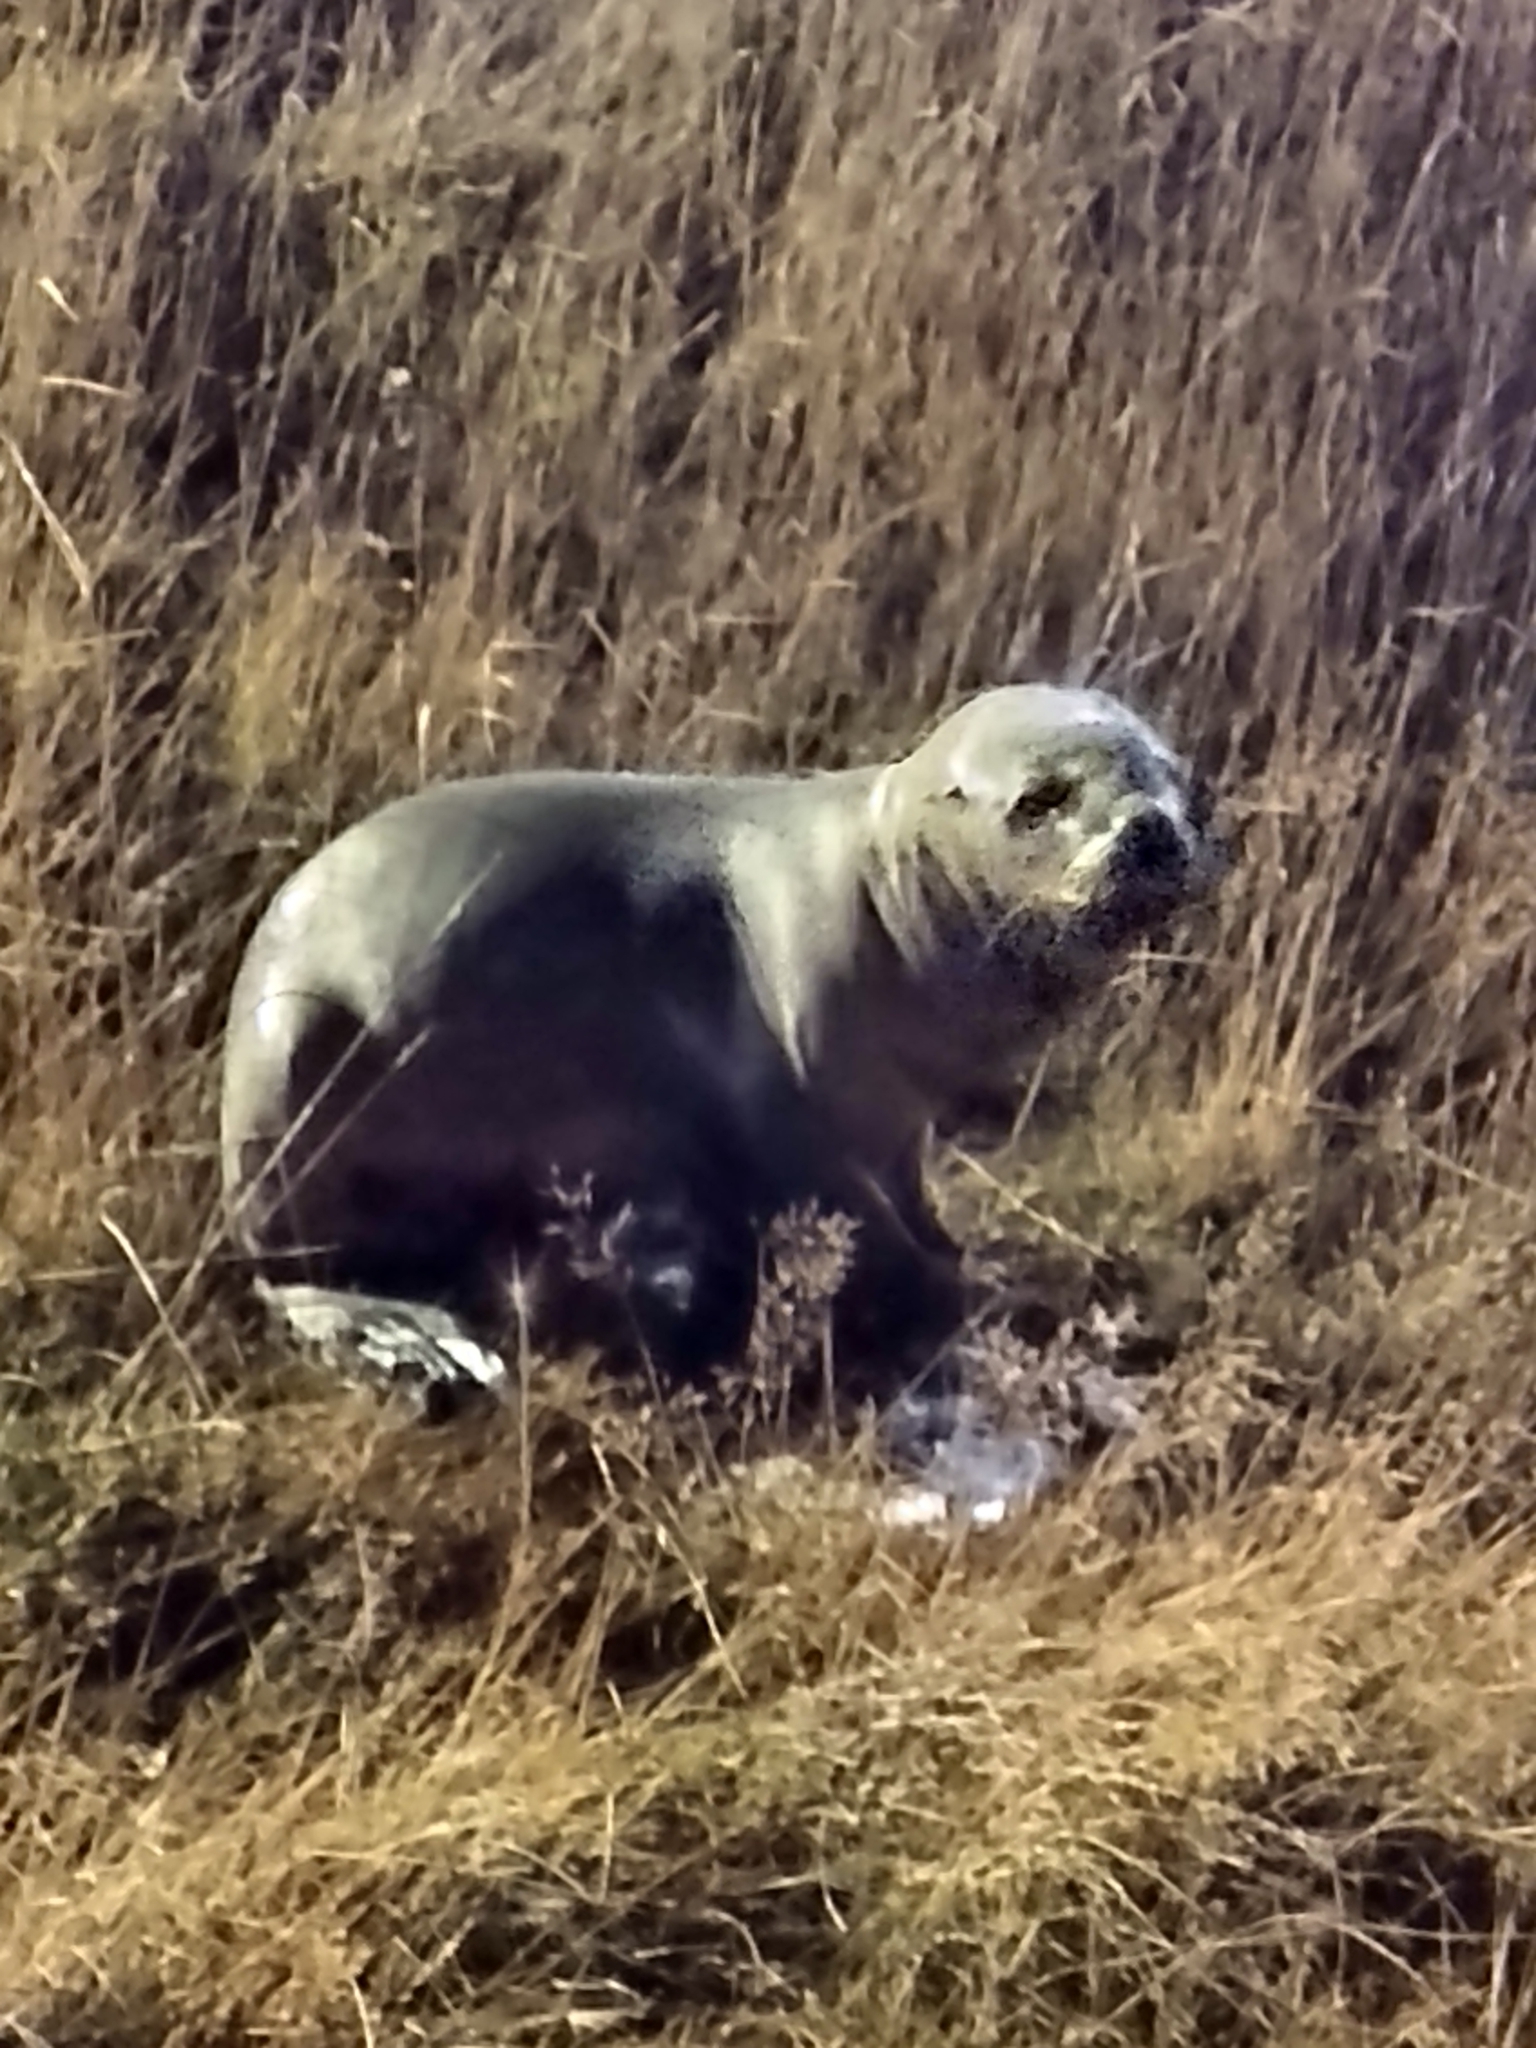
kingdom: Animalia
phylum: Chordata
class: Mammalia
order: Carnivora
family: Otariidae
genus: Otaria
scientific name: Otaria byronia
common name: South american sea lion
